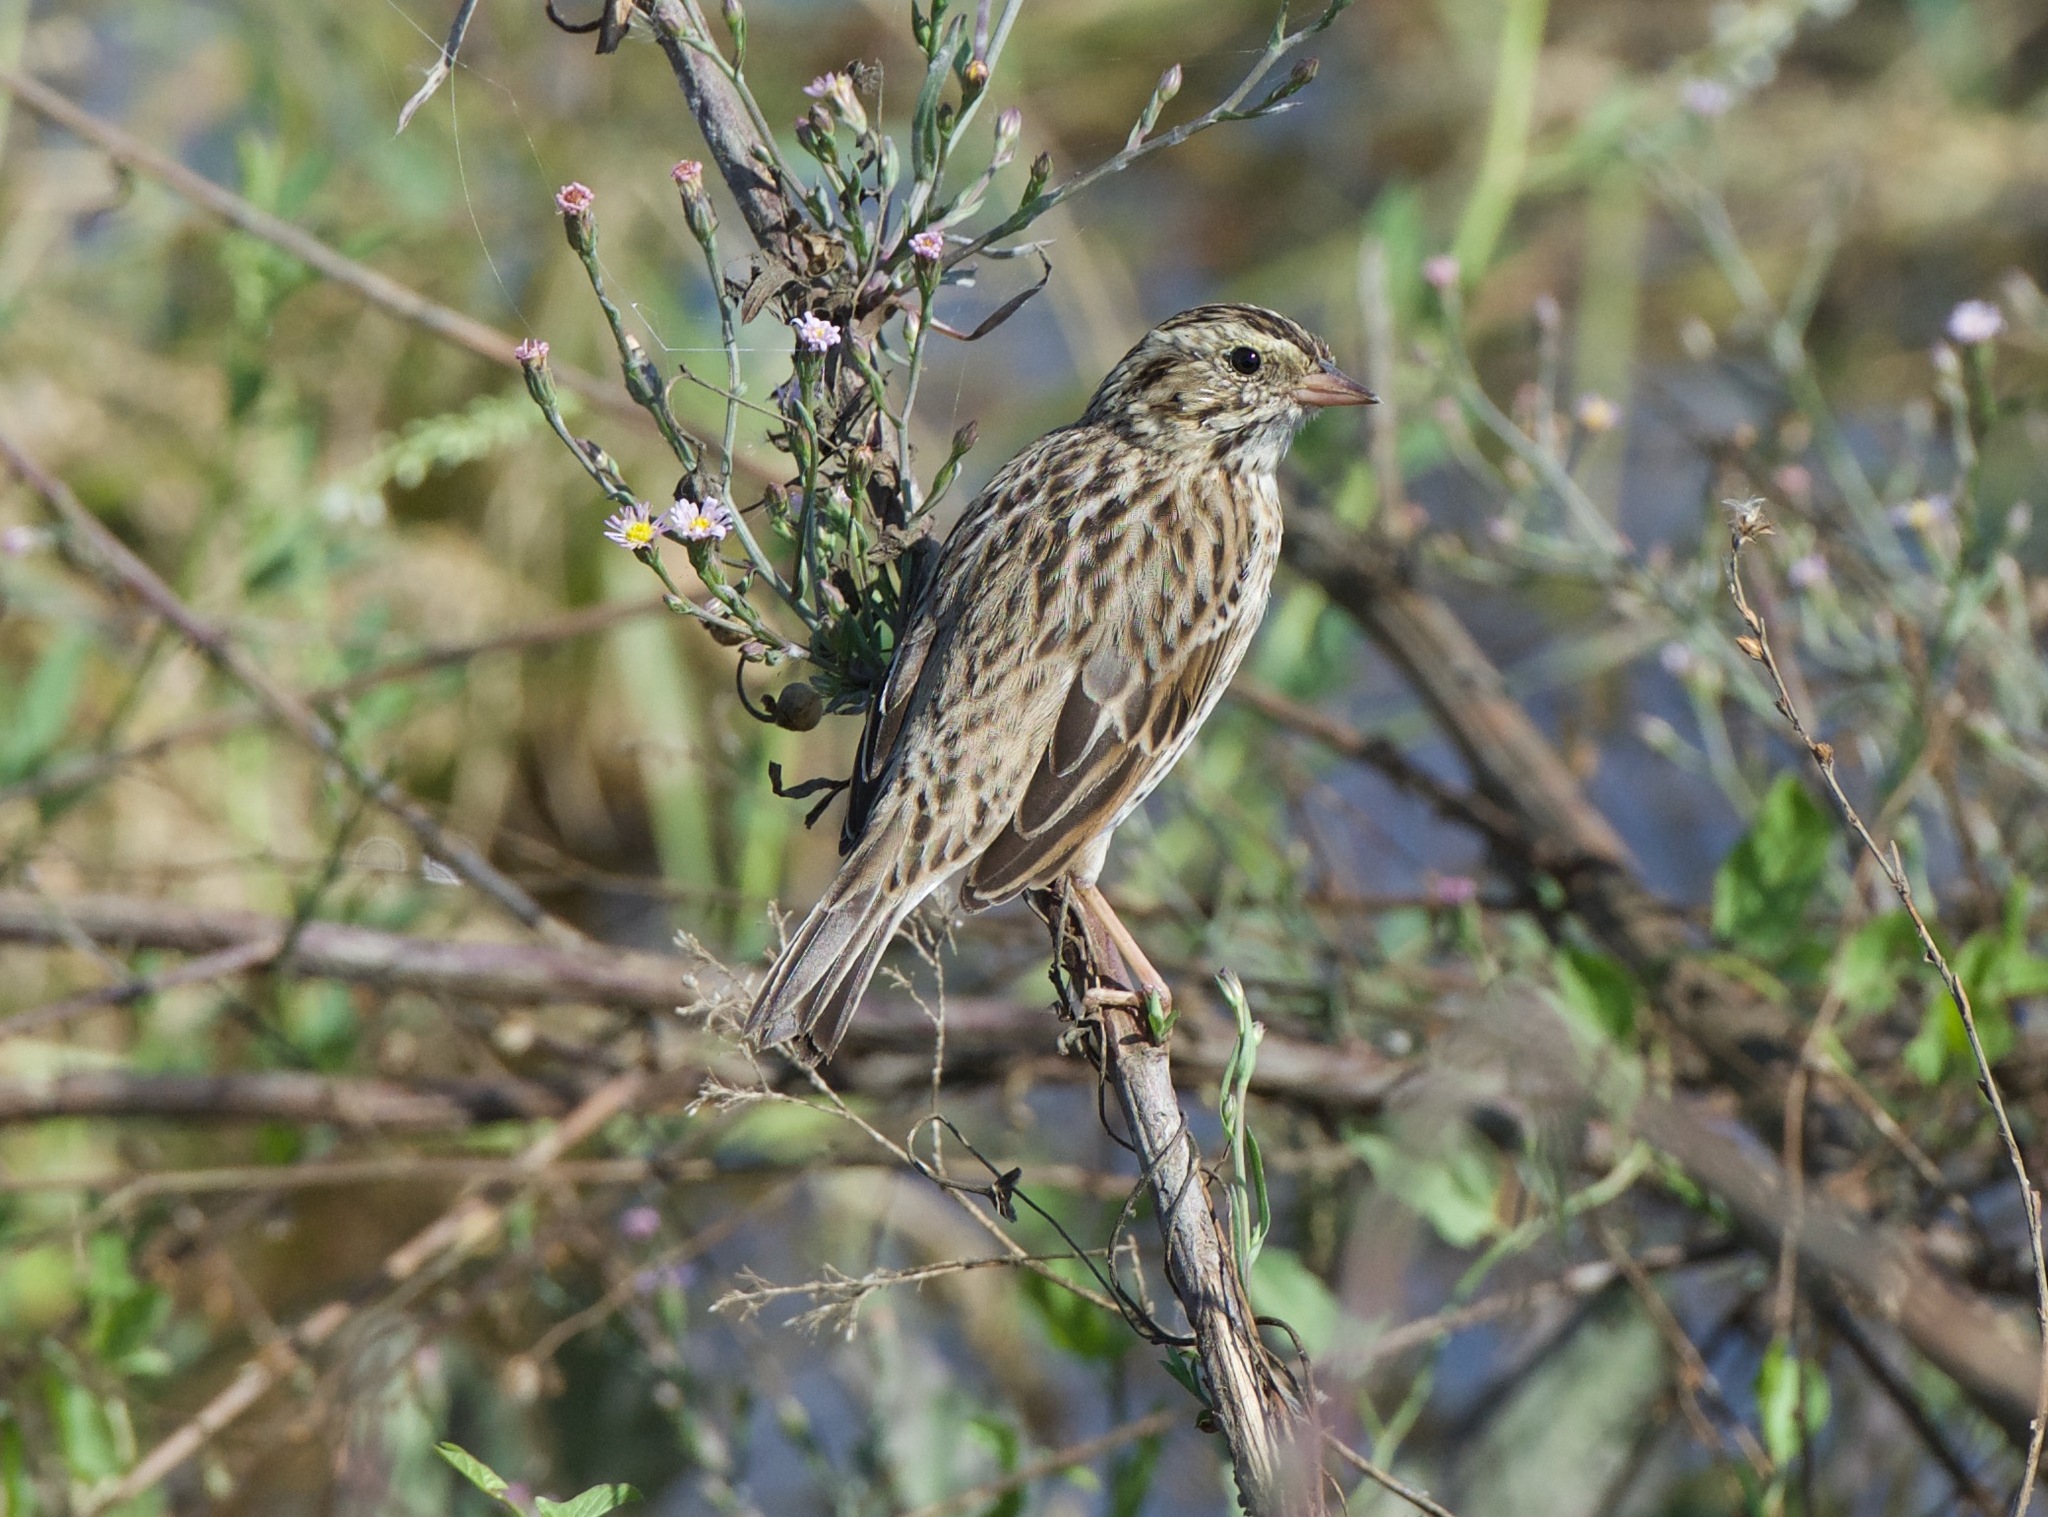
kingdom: Animalia
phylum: Chordata
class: Aves
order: Passeriformes
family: Passerellidae
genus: Passerculus
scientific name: Passerculus sandwichensis
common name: Savannah sparrow
